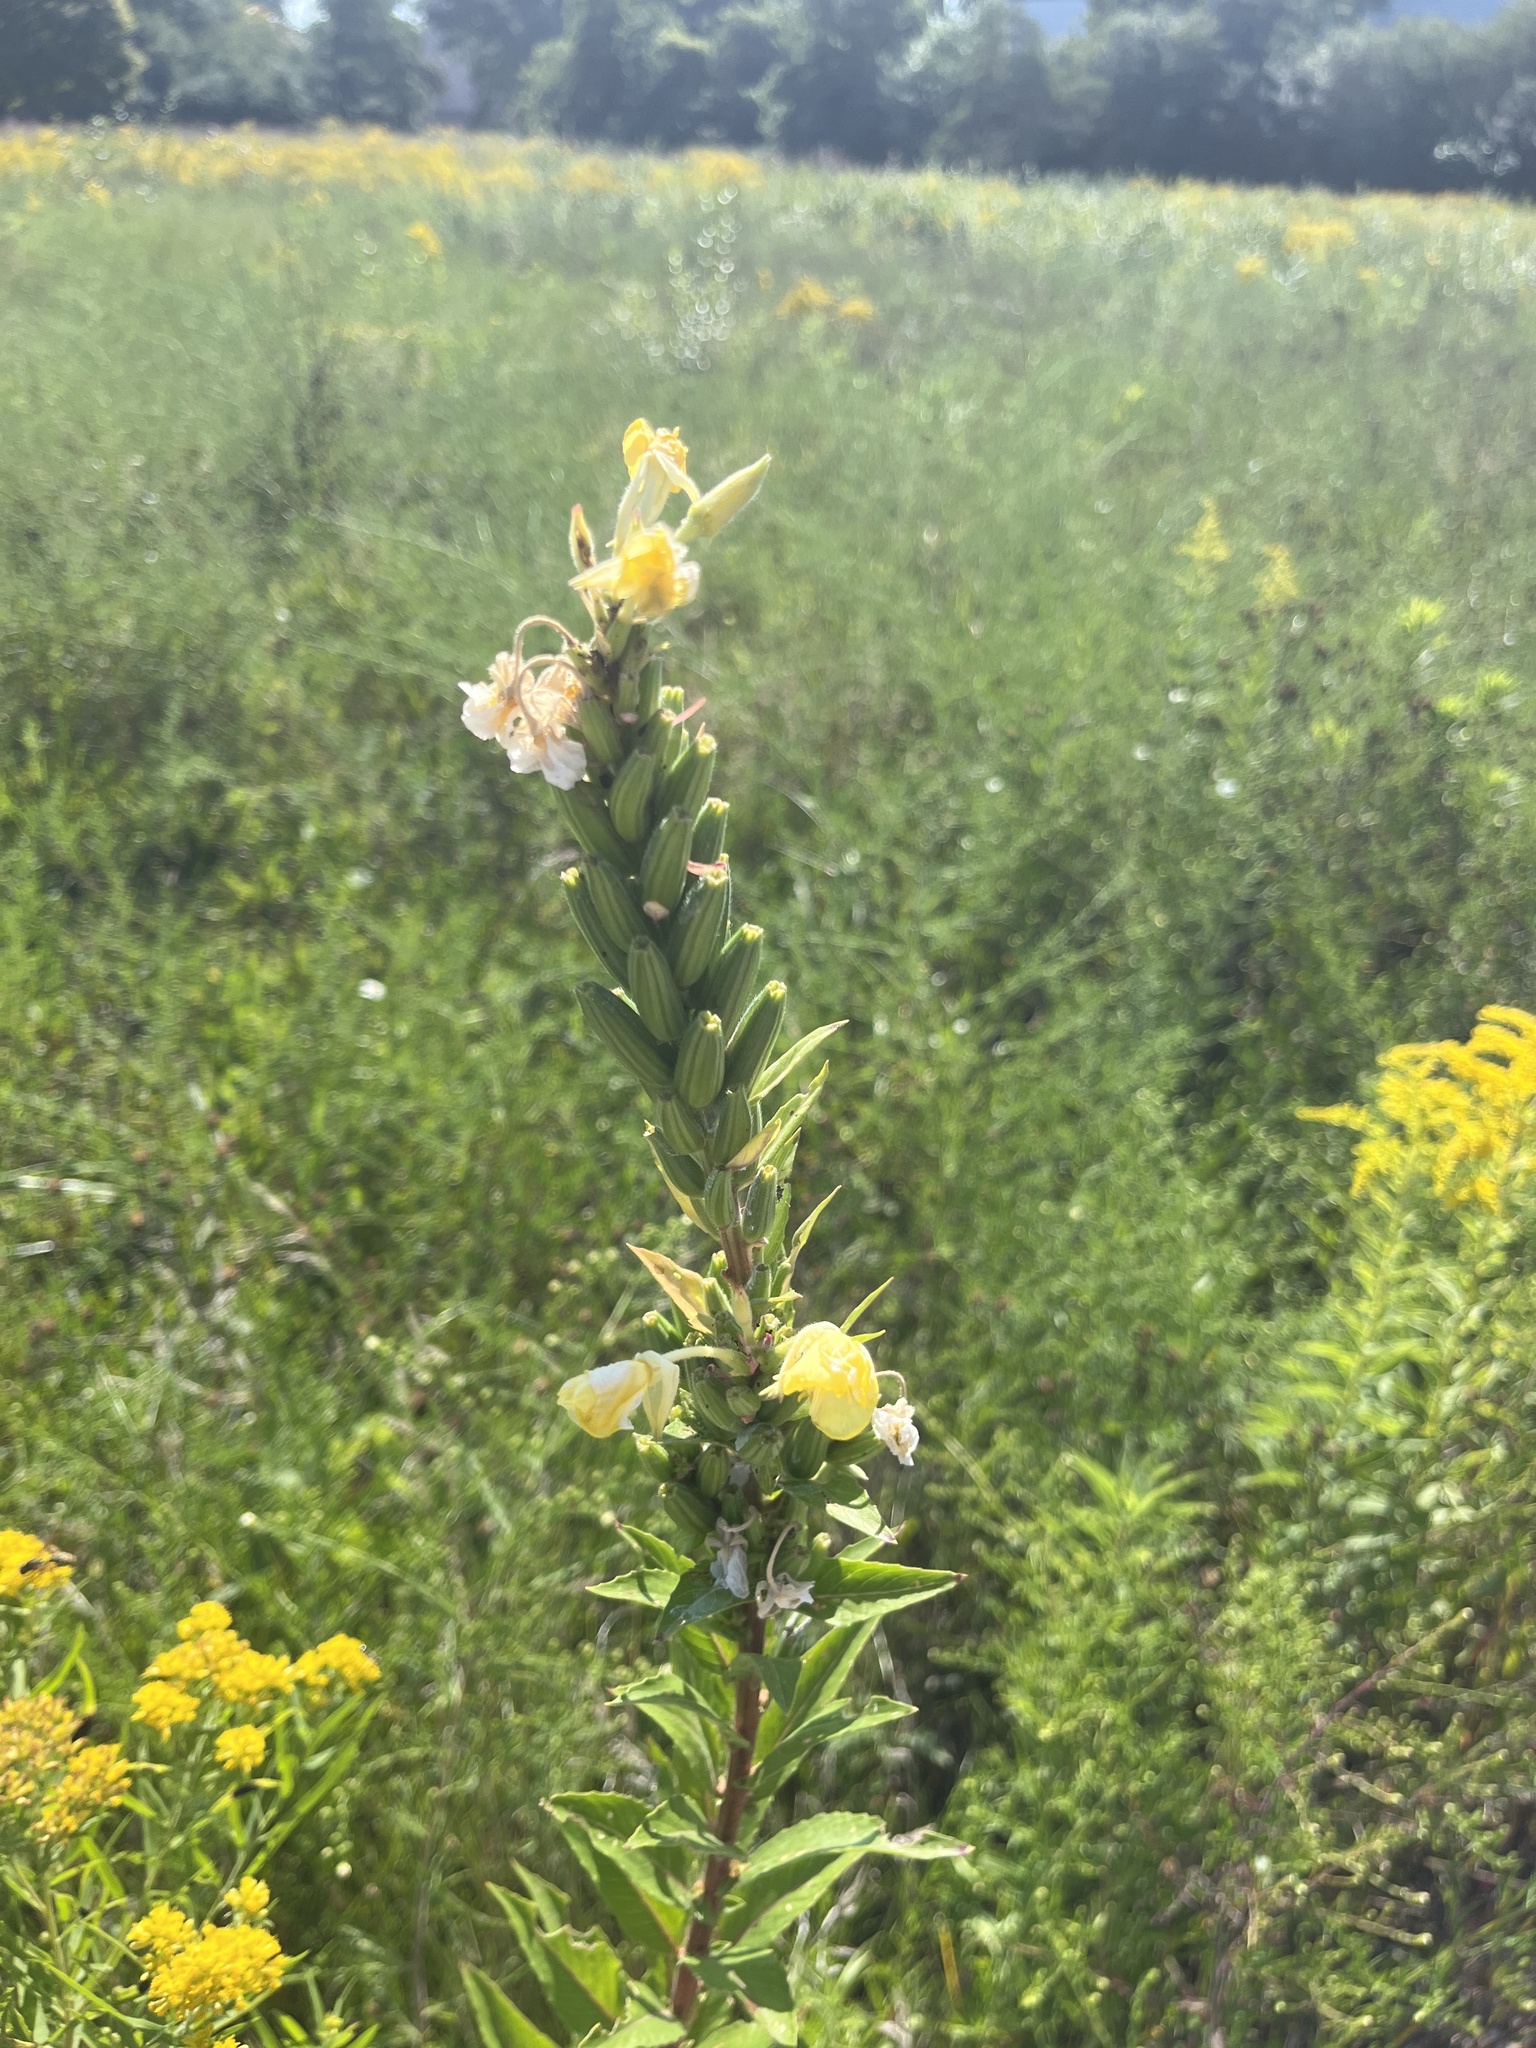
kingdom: Plantae
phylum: Tracheophyta
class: Magnoliopsida
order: Myrtales
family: Onagraceae
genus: Oenothera
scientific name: Oenothera biennis
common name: Common evening-primrose
